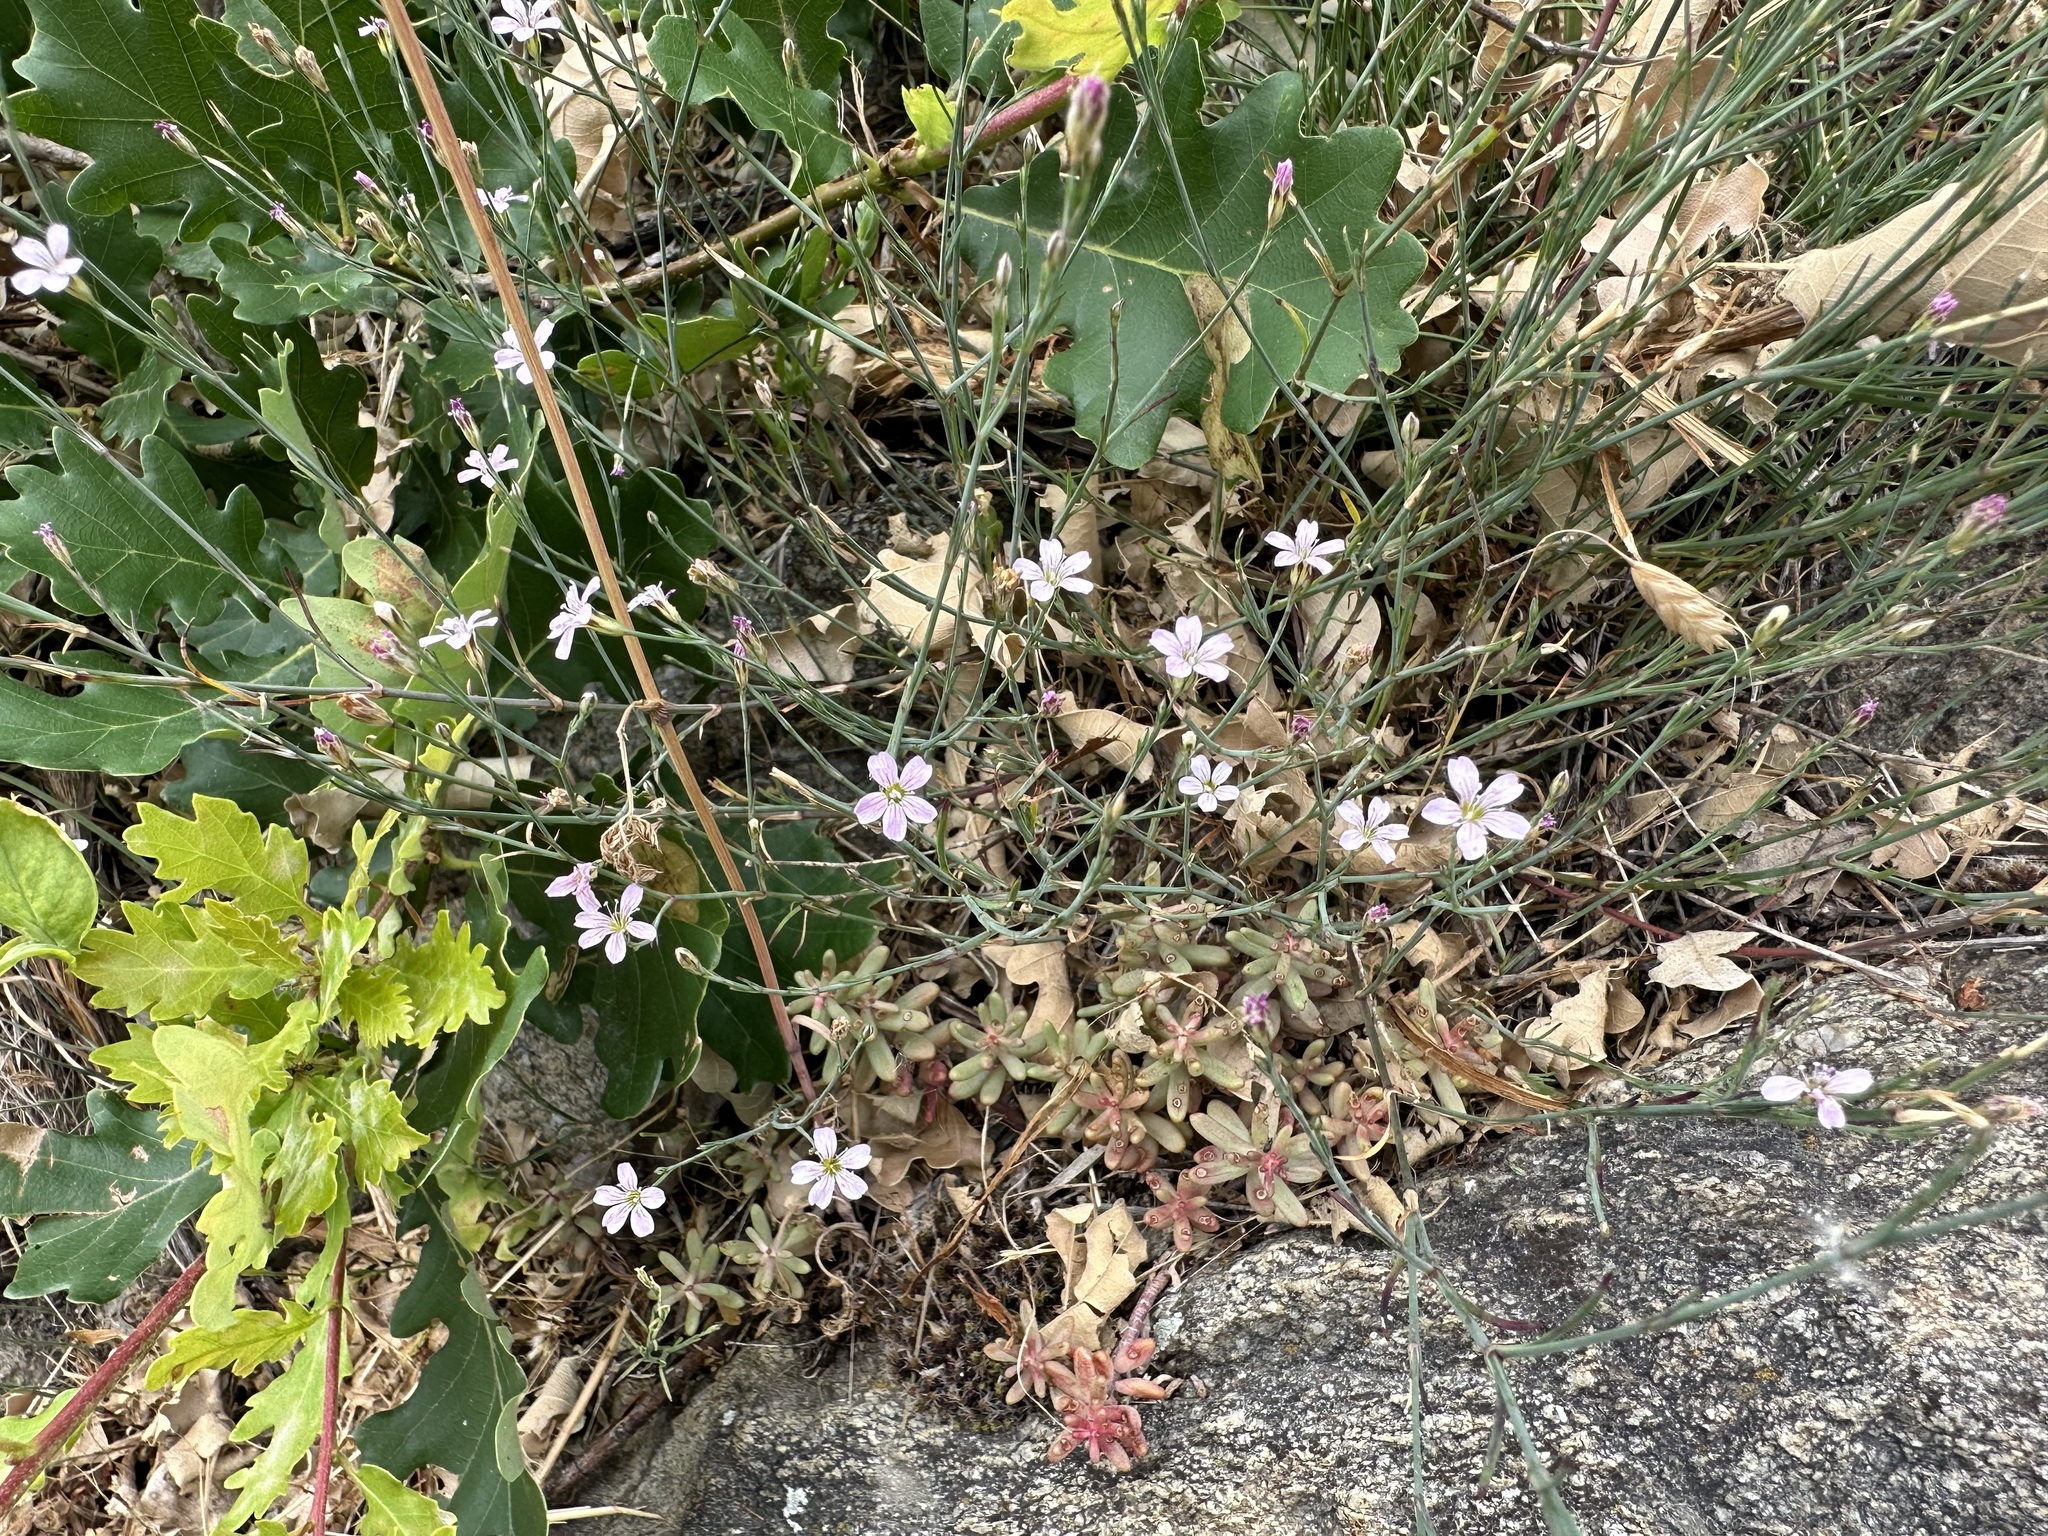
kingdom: Plantae
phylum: Tracheophyta
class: Magnoliopsida
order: Caryophyllales
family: Caryophyllaceae
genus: Petrorhagia
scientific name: Petrorhagia saxifraga
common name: Tunicflower
